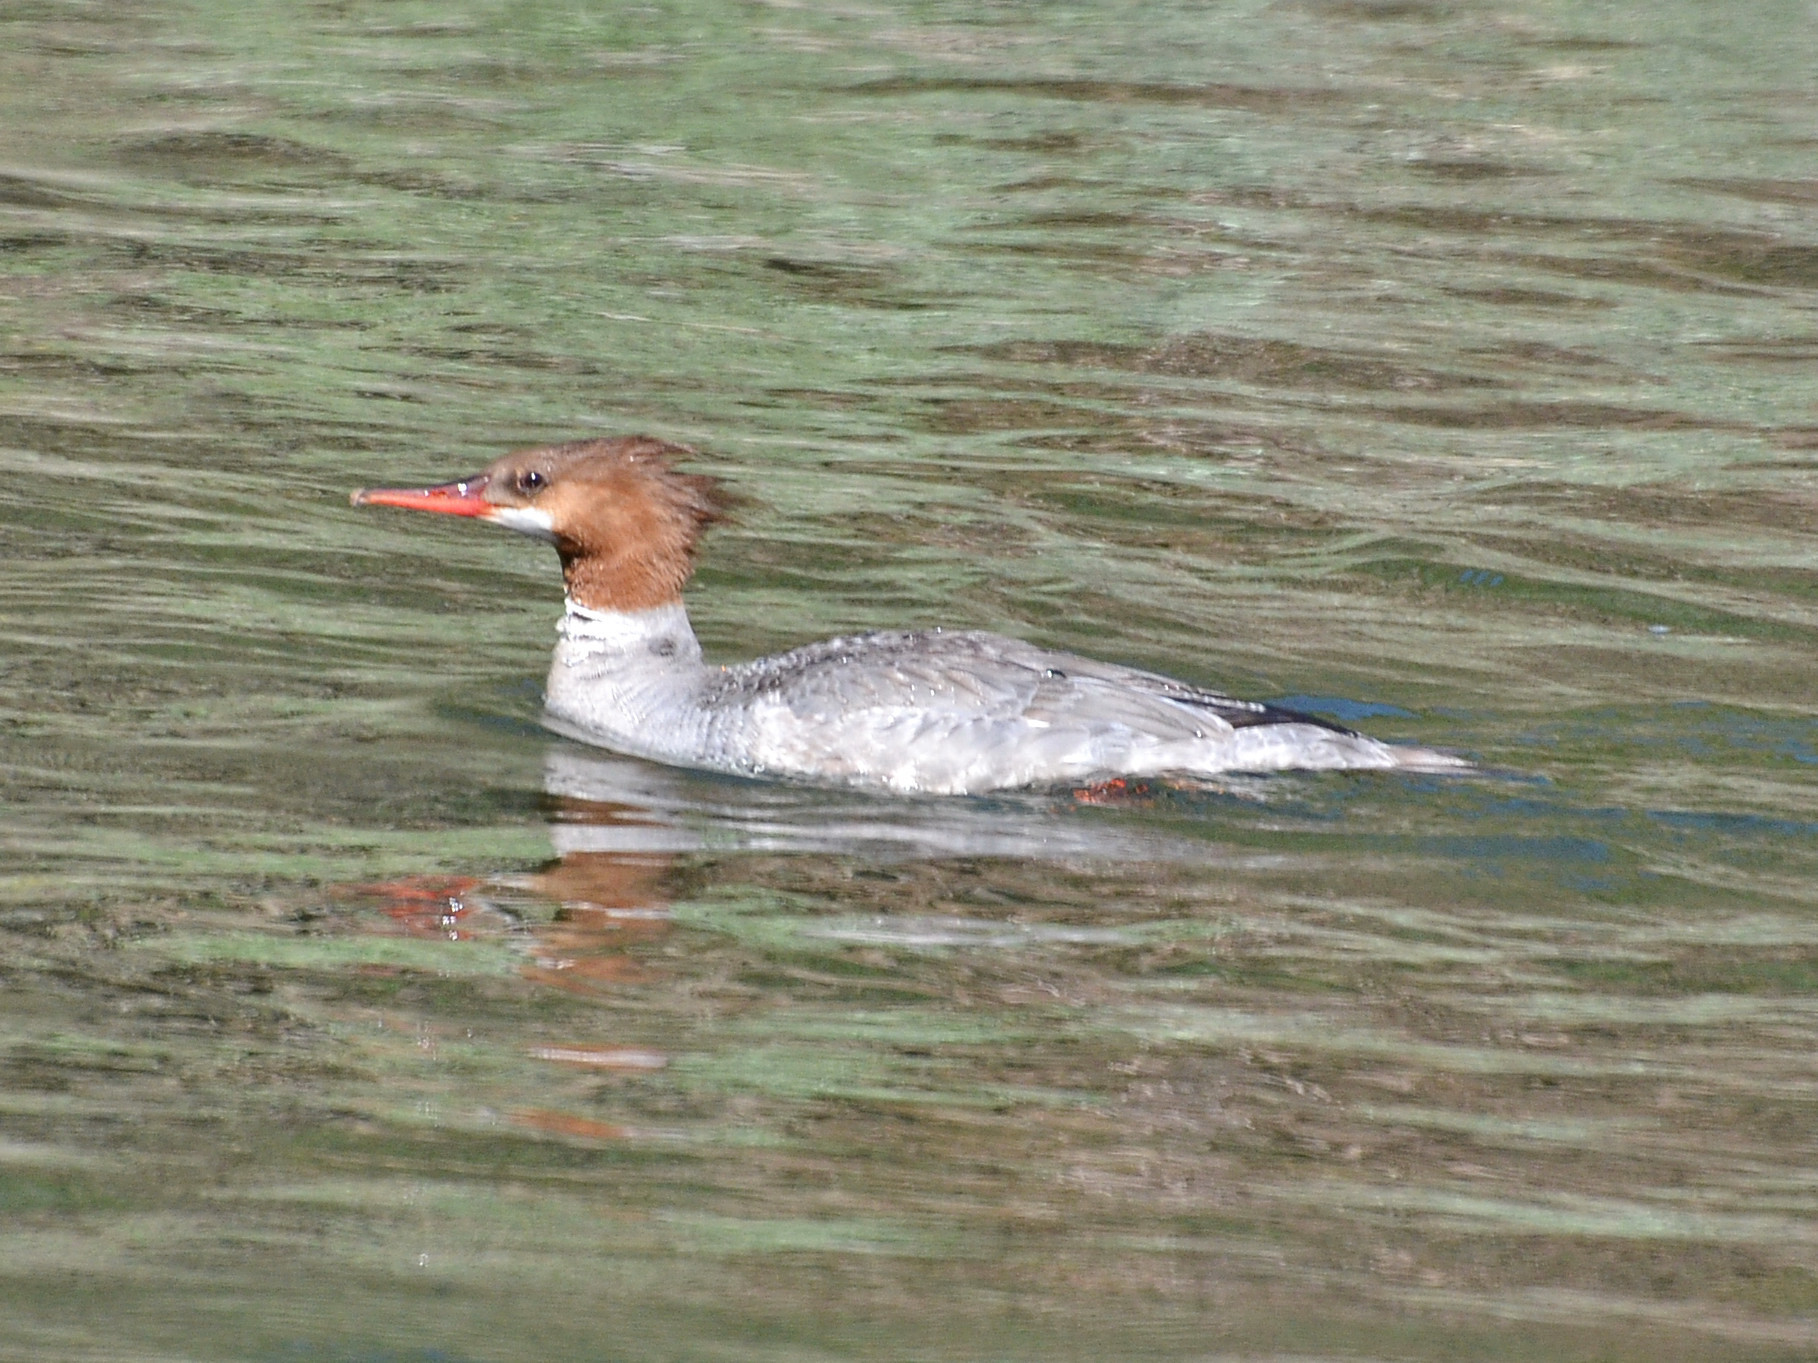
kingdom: Animalia
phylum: Chordata
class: Aves
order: Anseriformes
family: Anatidae
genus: Mergus
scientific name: Mergus merganser
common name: Common merganser
